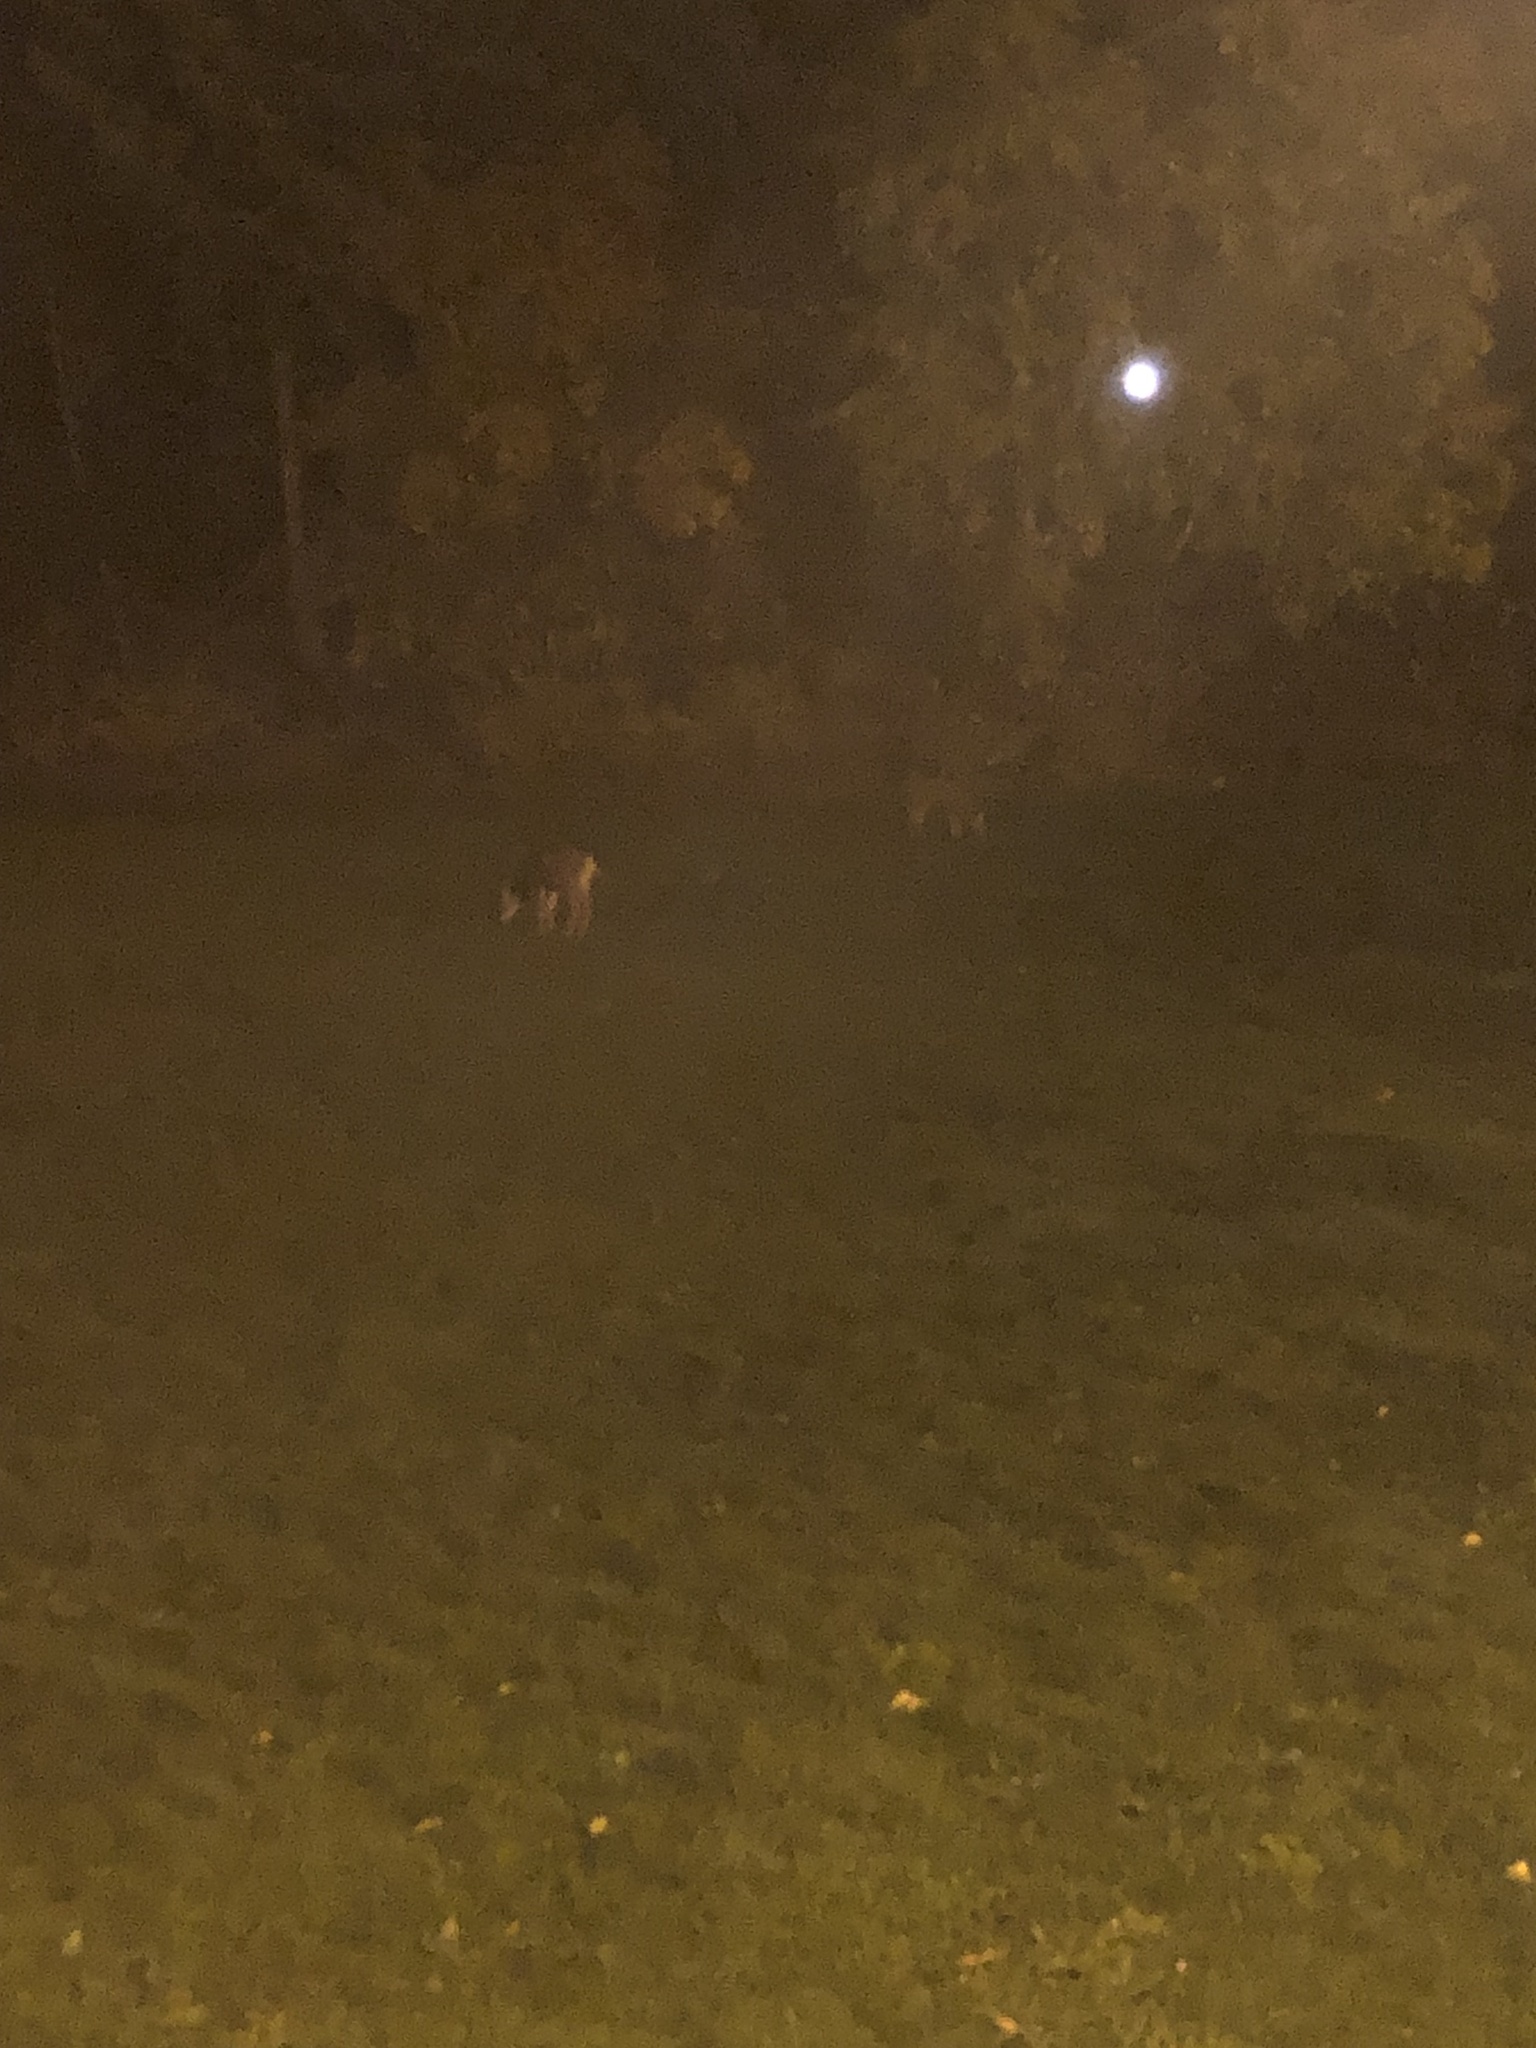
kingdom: Animalia
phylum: Chordata
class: Mammalia
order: Artiodactyla
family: Cervidae
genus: Odocoileus
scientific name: Odocoileus hemionus
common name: Mule deer
